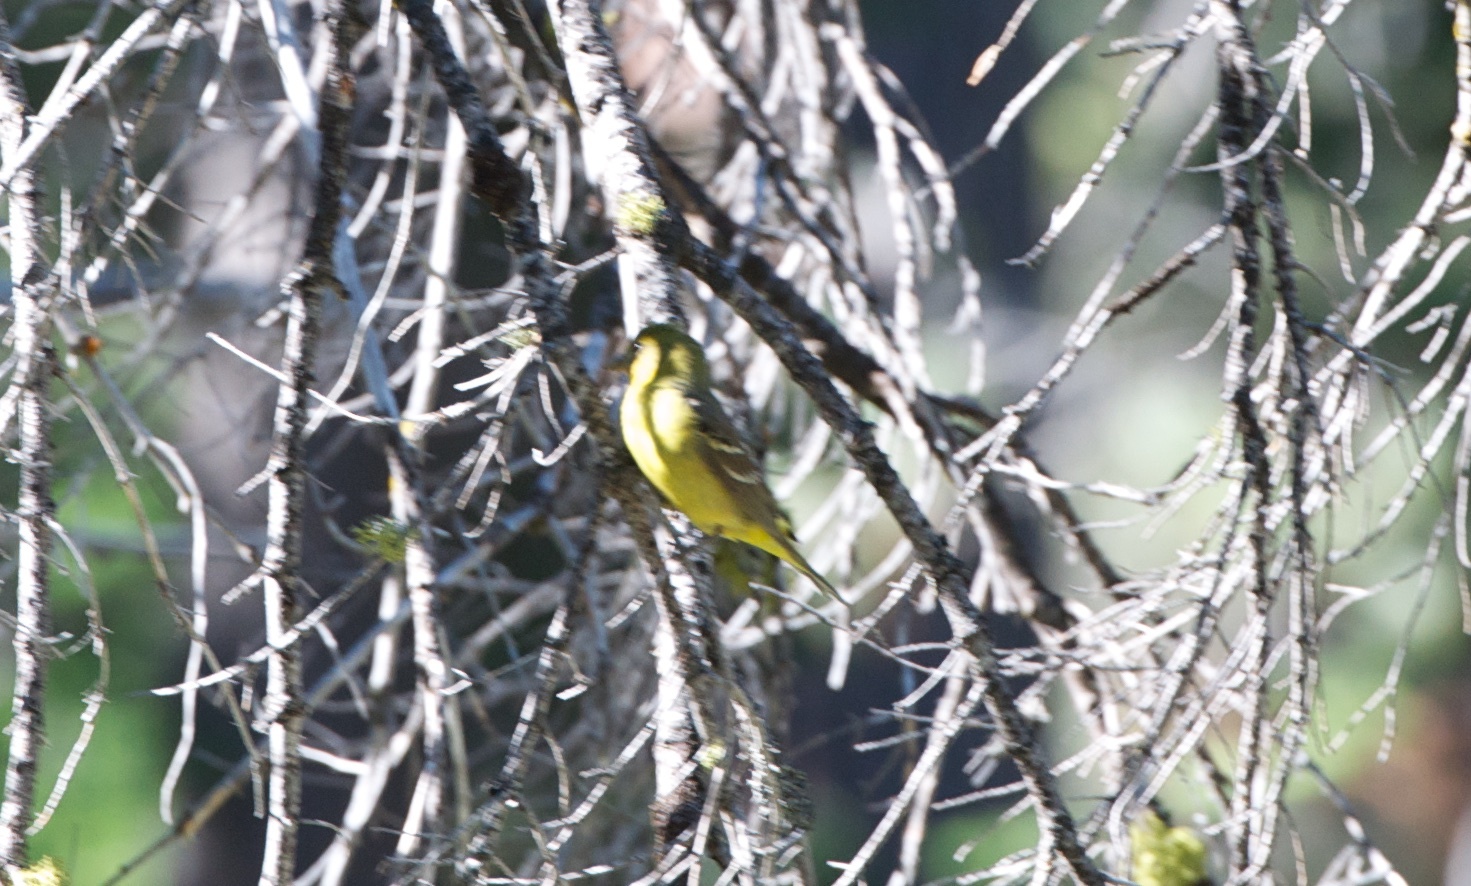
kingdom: Animalia
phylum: Chordata
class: Aves
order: Passeriformes
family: Cardinalidae
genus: Piranga
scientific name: Piranga ludoviciana
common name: Western tanager
